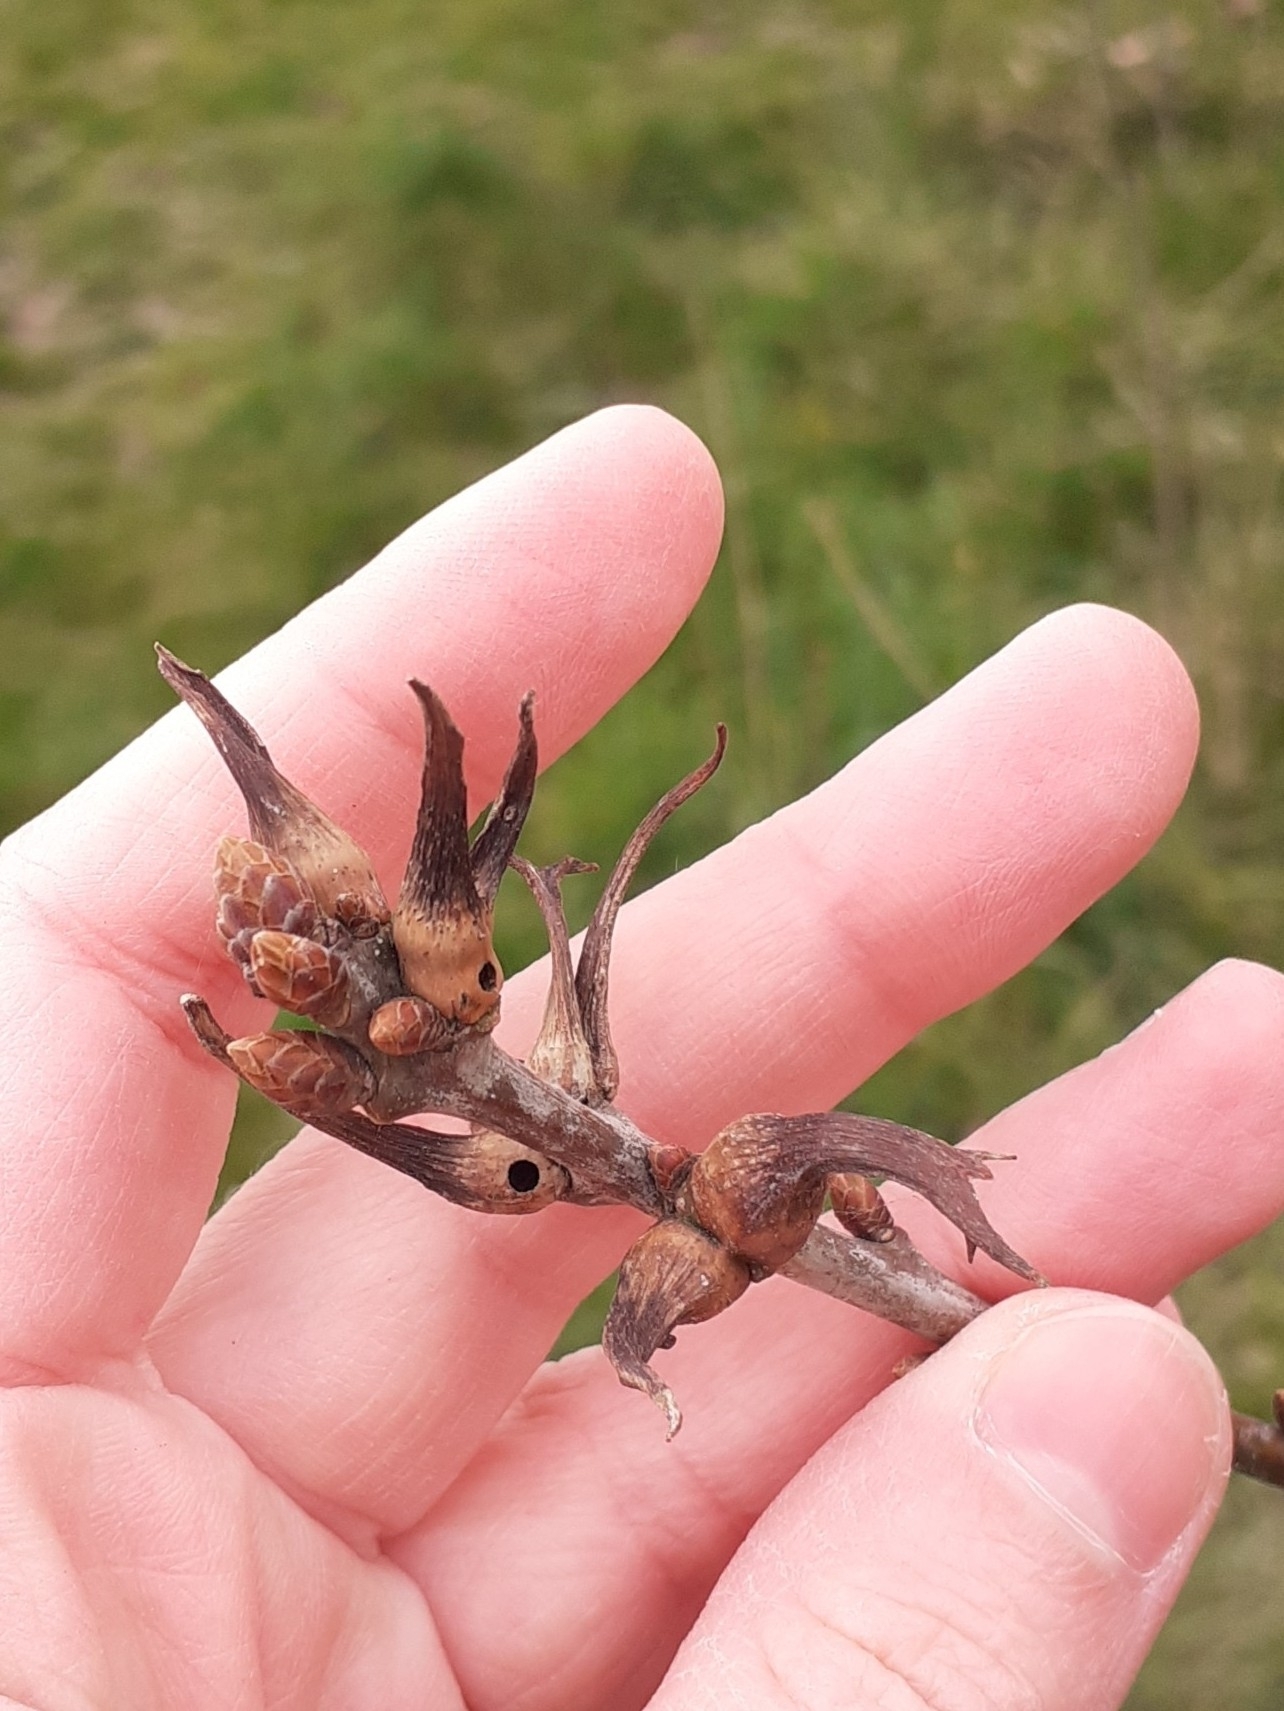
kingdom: Animalia
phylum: Arthropoda
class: Insecta
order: Hymenoptera
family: Cynipidae
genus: Andricus
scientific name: Andricus aries
